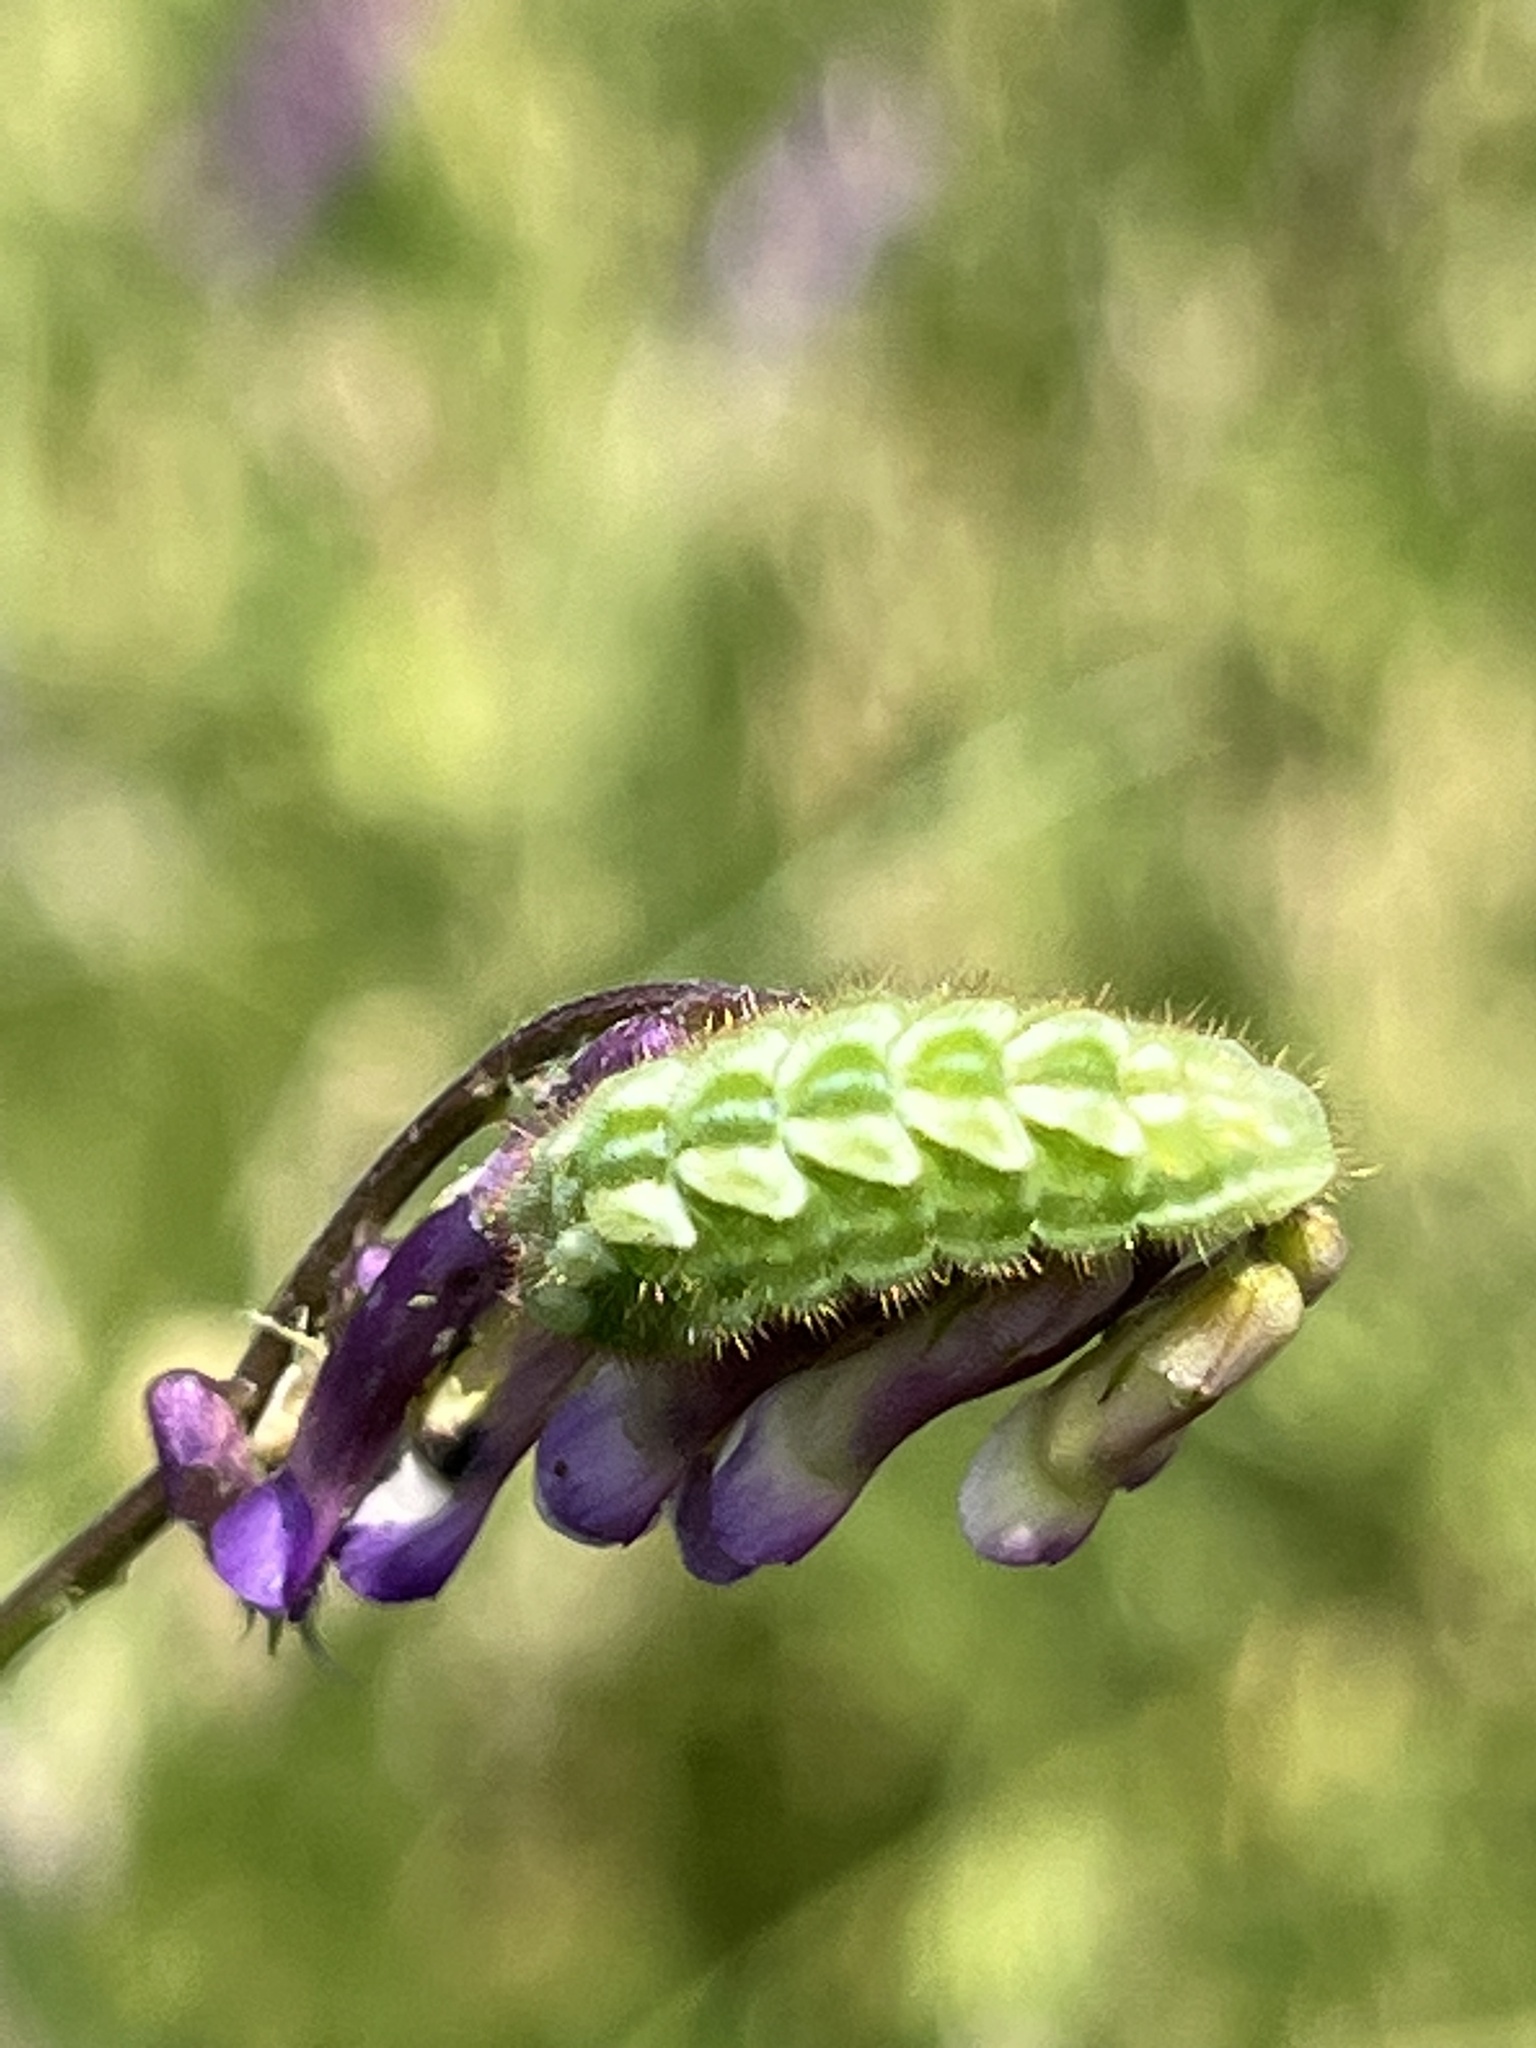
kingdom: Animalia
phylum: Arthropoda
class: Insecta
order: Lepidoptera
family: Lycaenidae
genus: Callophrys
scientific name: Callophrys rubi
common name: Green hairstreak
